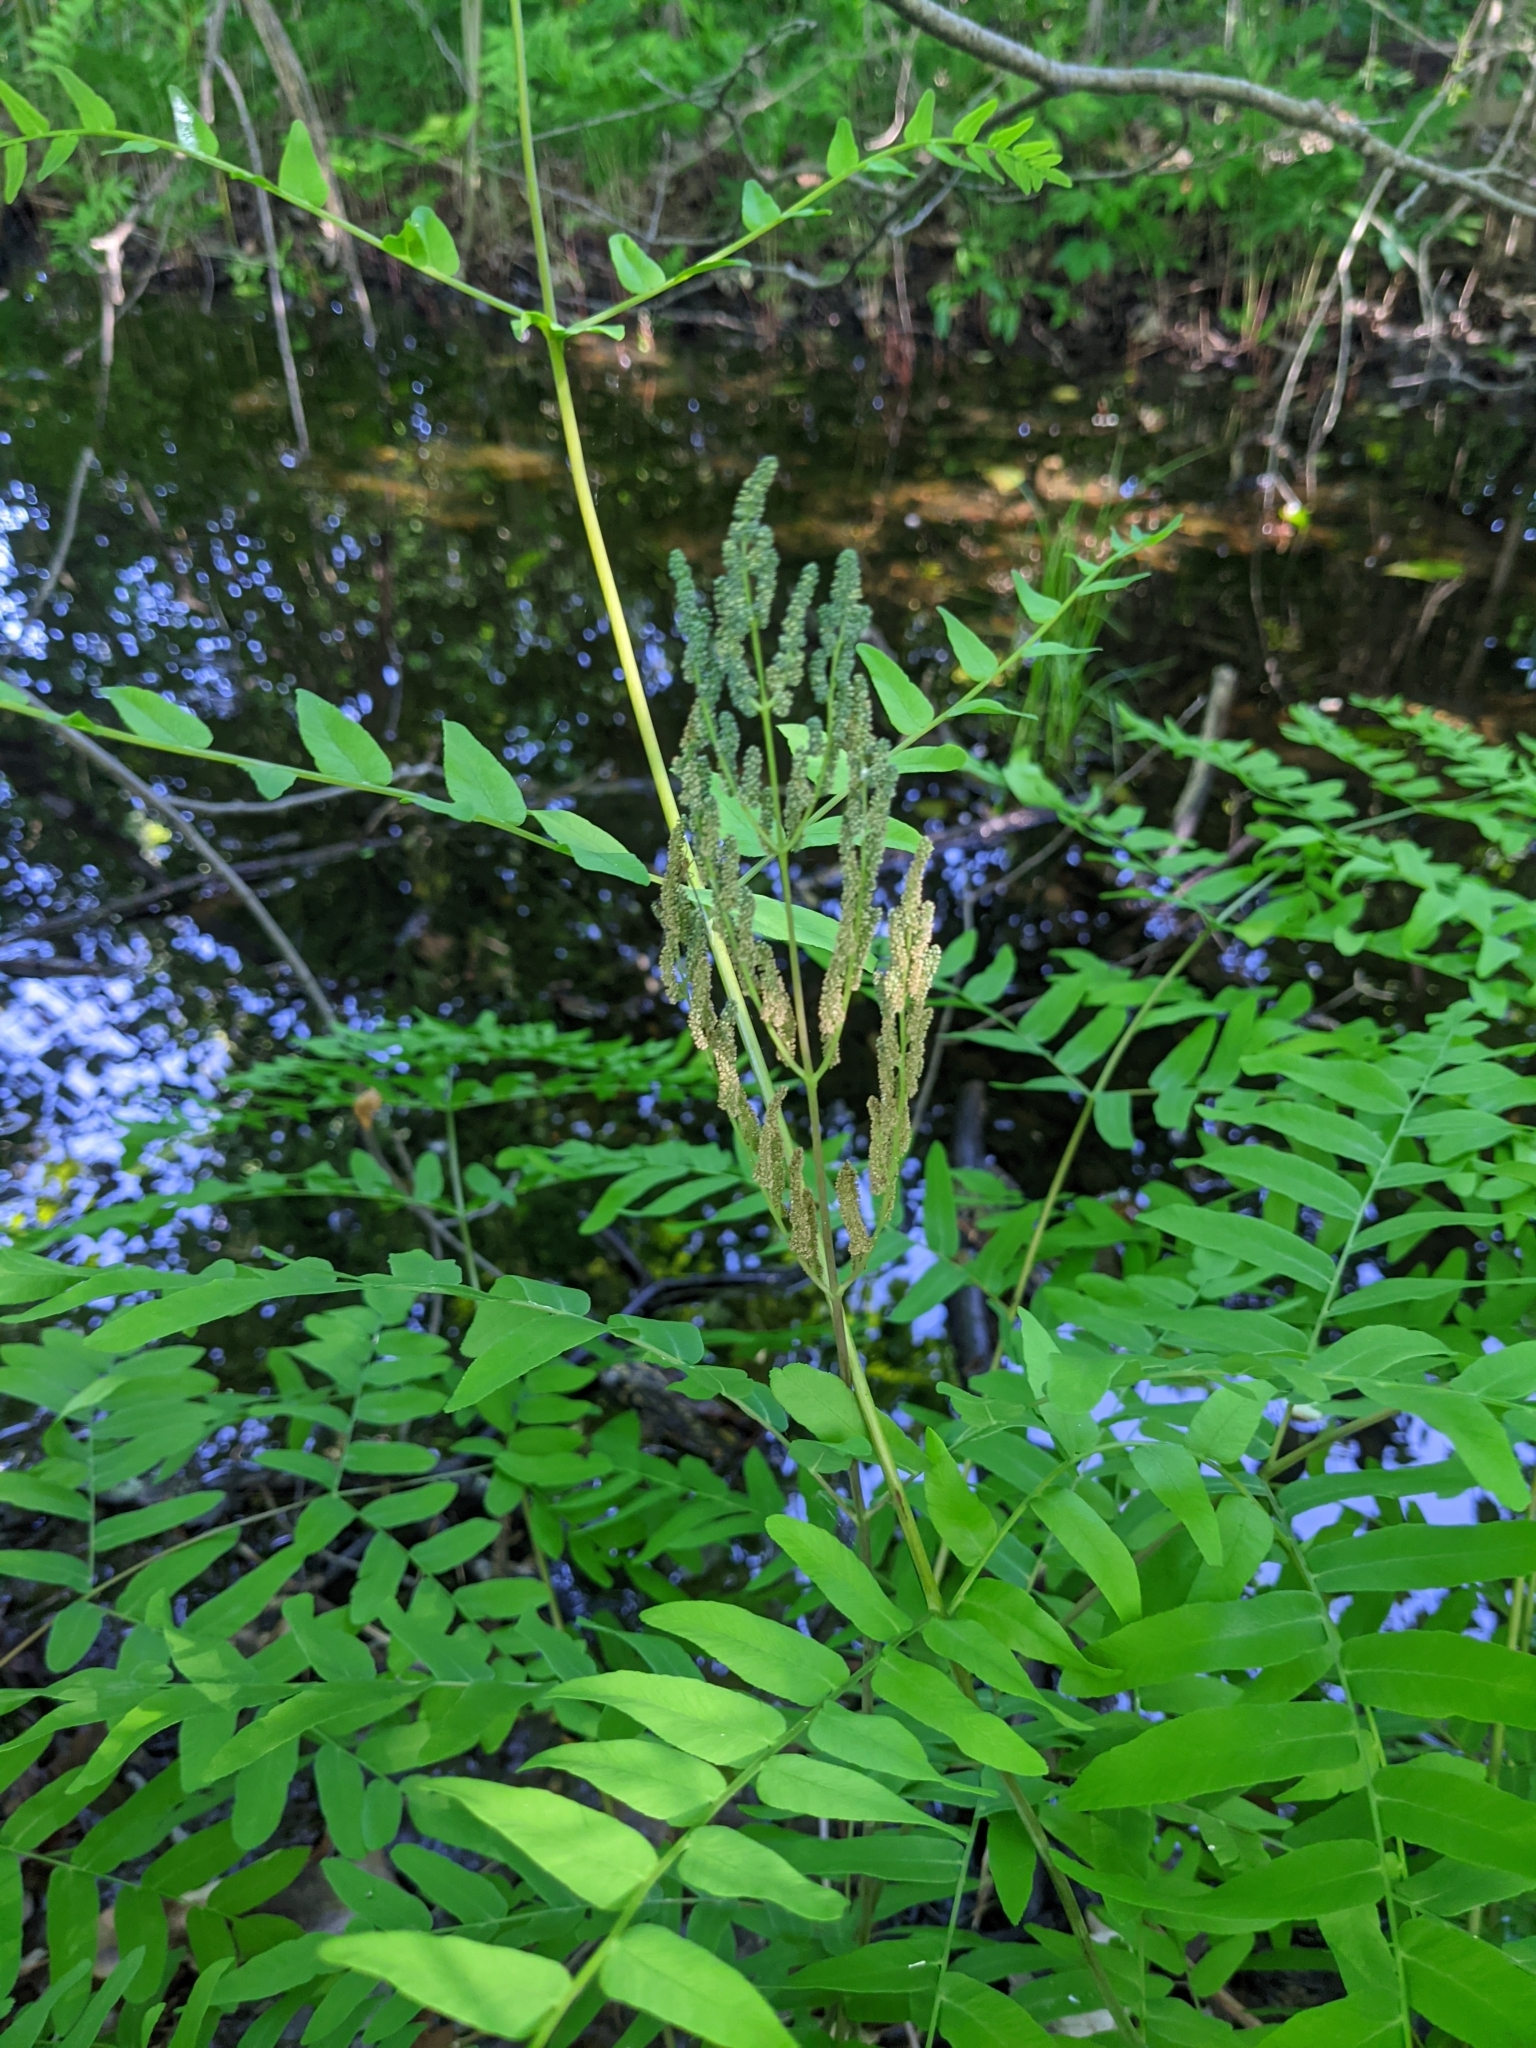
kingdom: Plantae
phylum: Tracheophyta
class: Polypodiopsida
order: Osmundales
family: Osmundaceae
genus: Osmunda
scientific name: Osmunda spectabilis
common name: American royal fern
